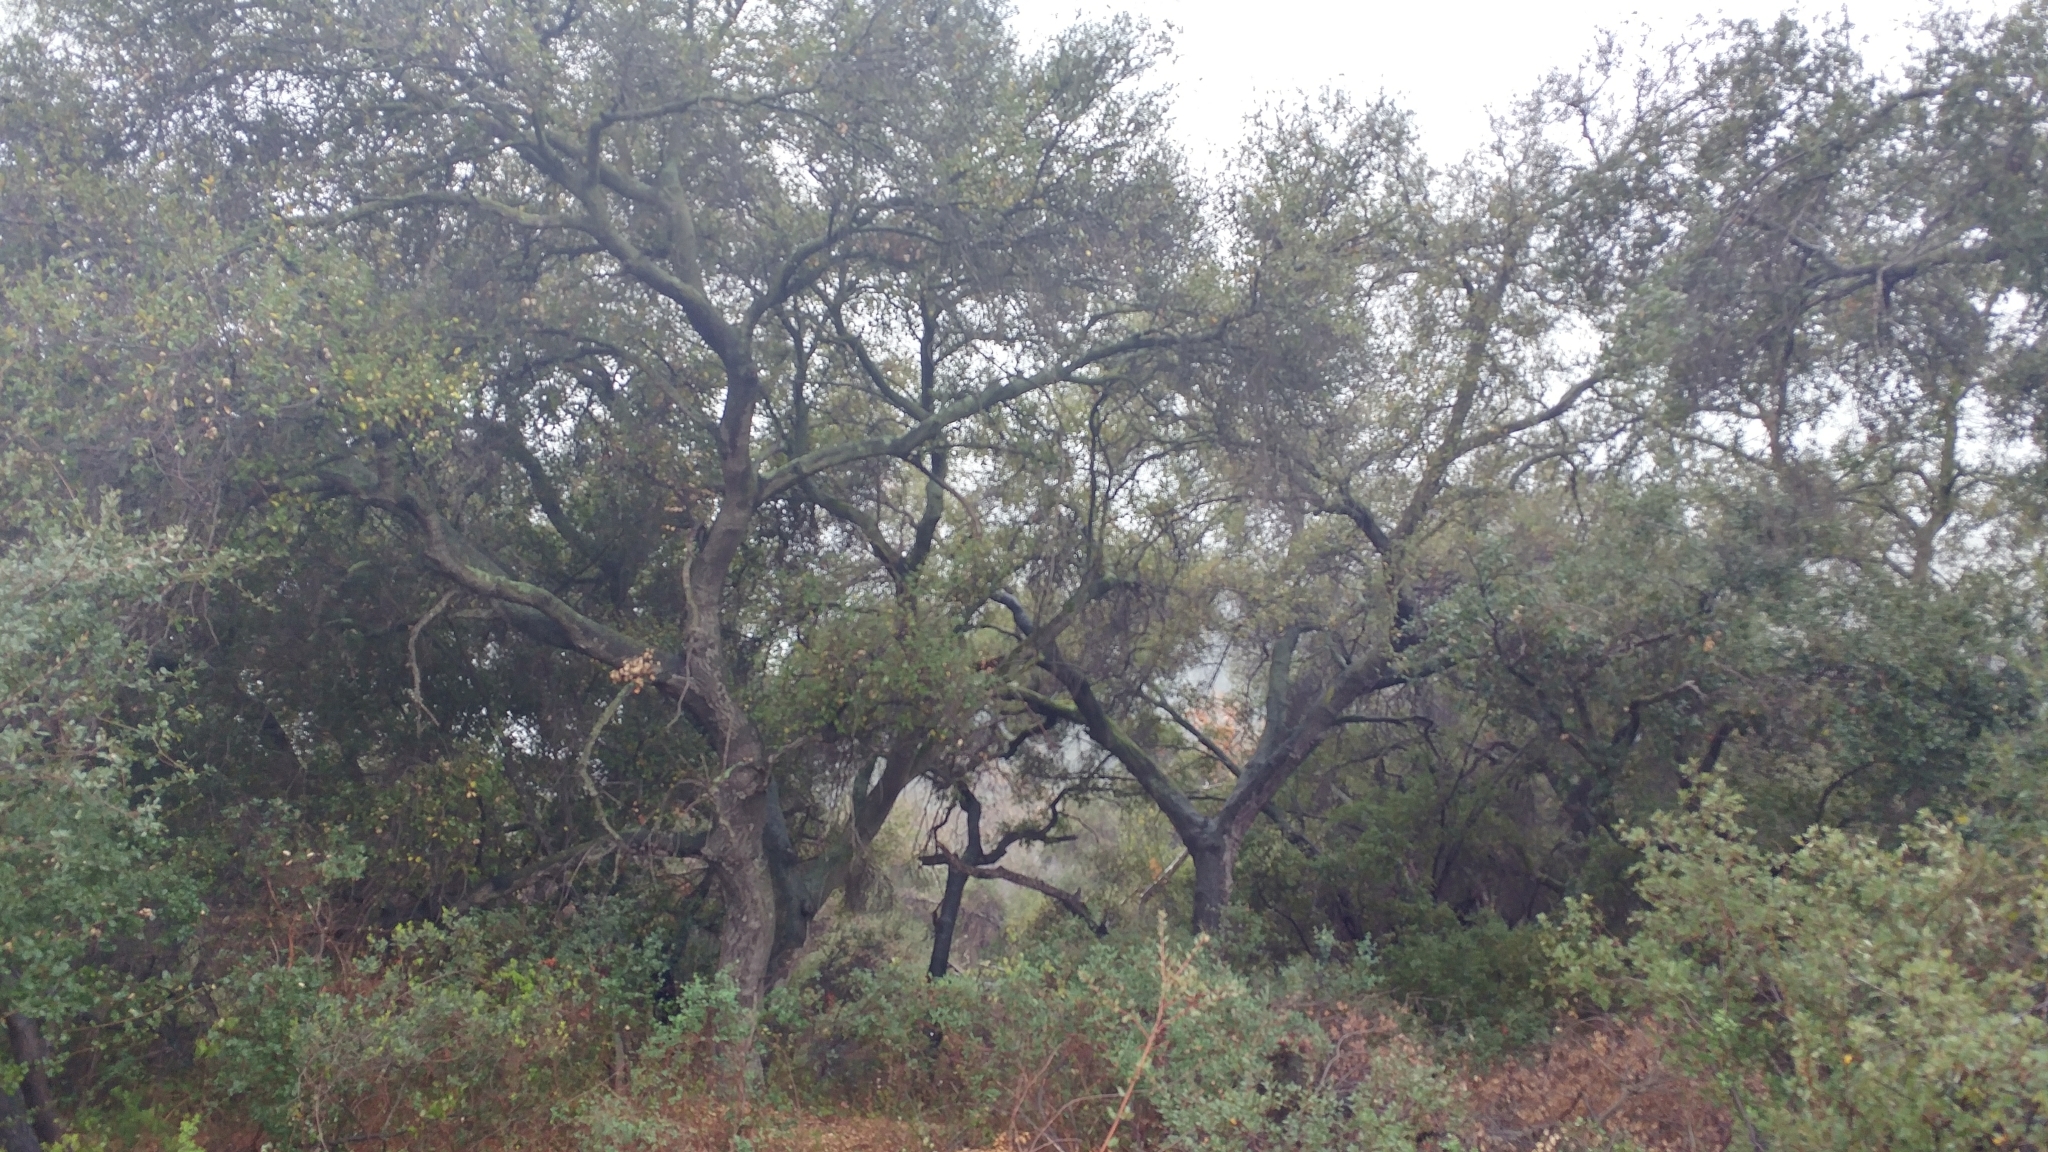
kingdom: Plantae
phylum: Tracheophyta
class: Magnoliopsida
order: Fagales
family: Fagaceae
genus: Quercus
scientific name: Quercus agrifolia
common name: California live oak
